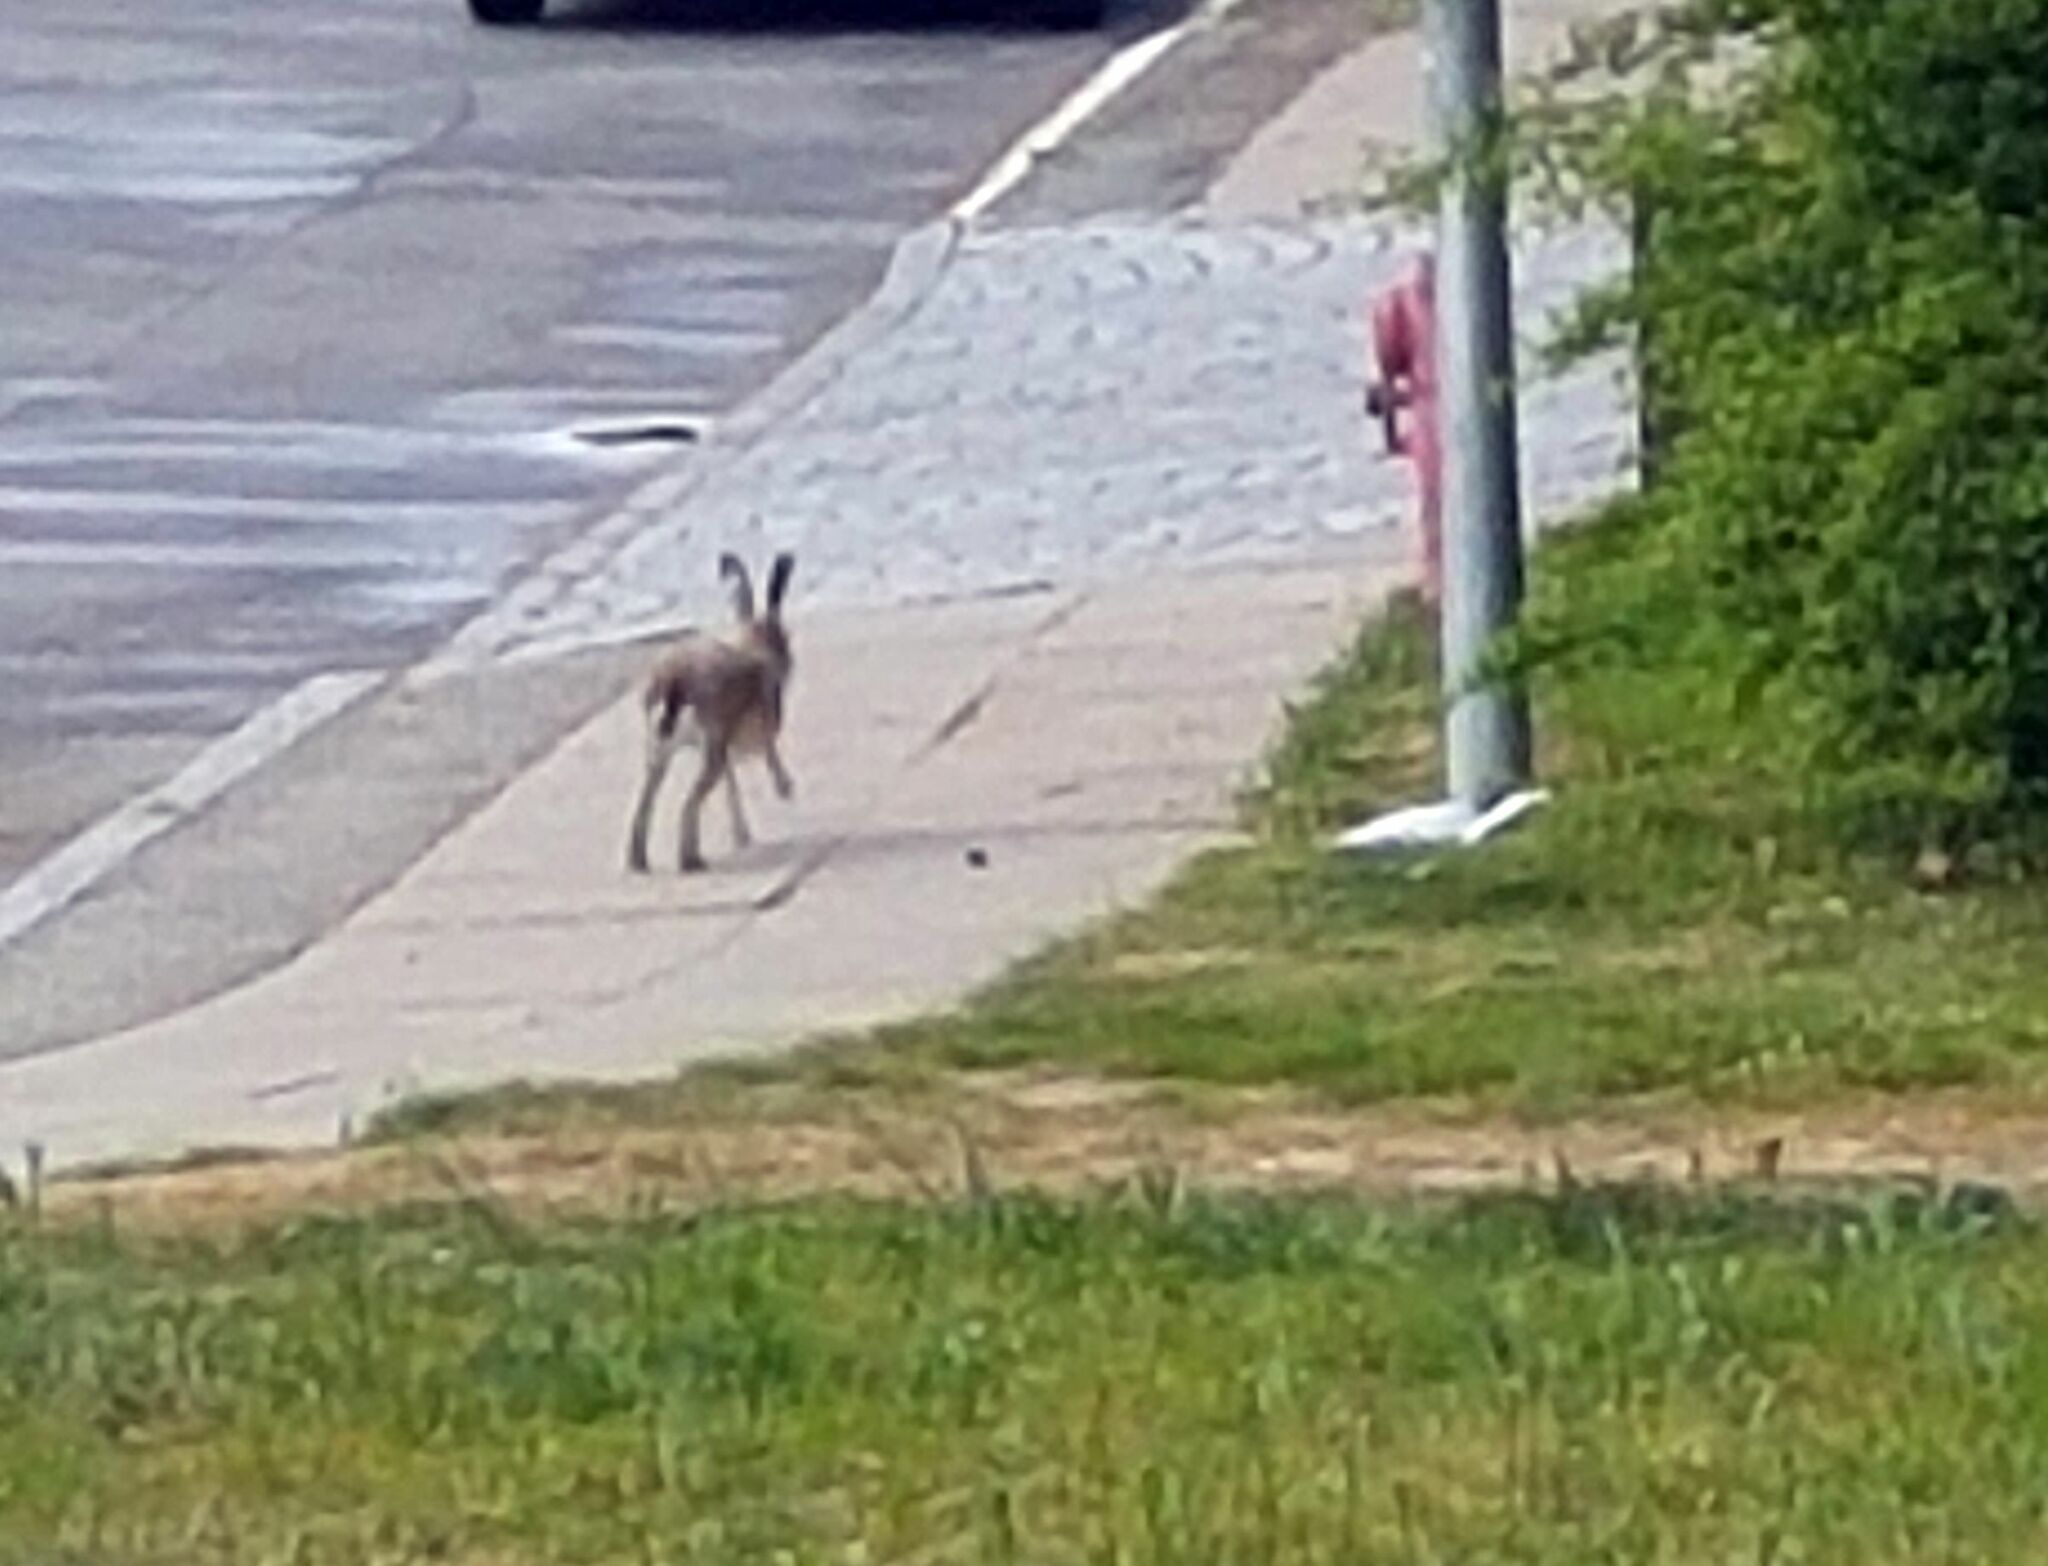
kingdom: Animalia
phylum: Chordata
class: Mammalia
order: Lagomorpha
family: Leporidae
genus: Lepus
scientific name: Lepus europaeus
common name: European hare
